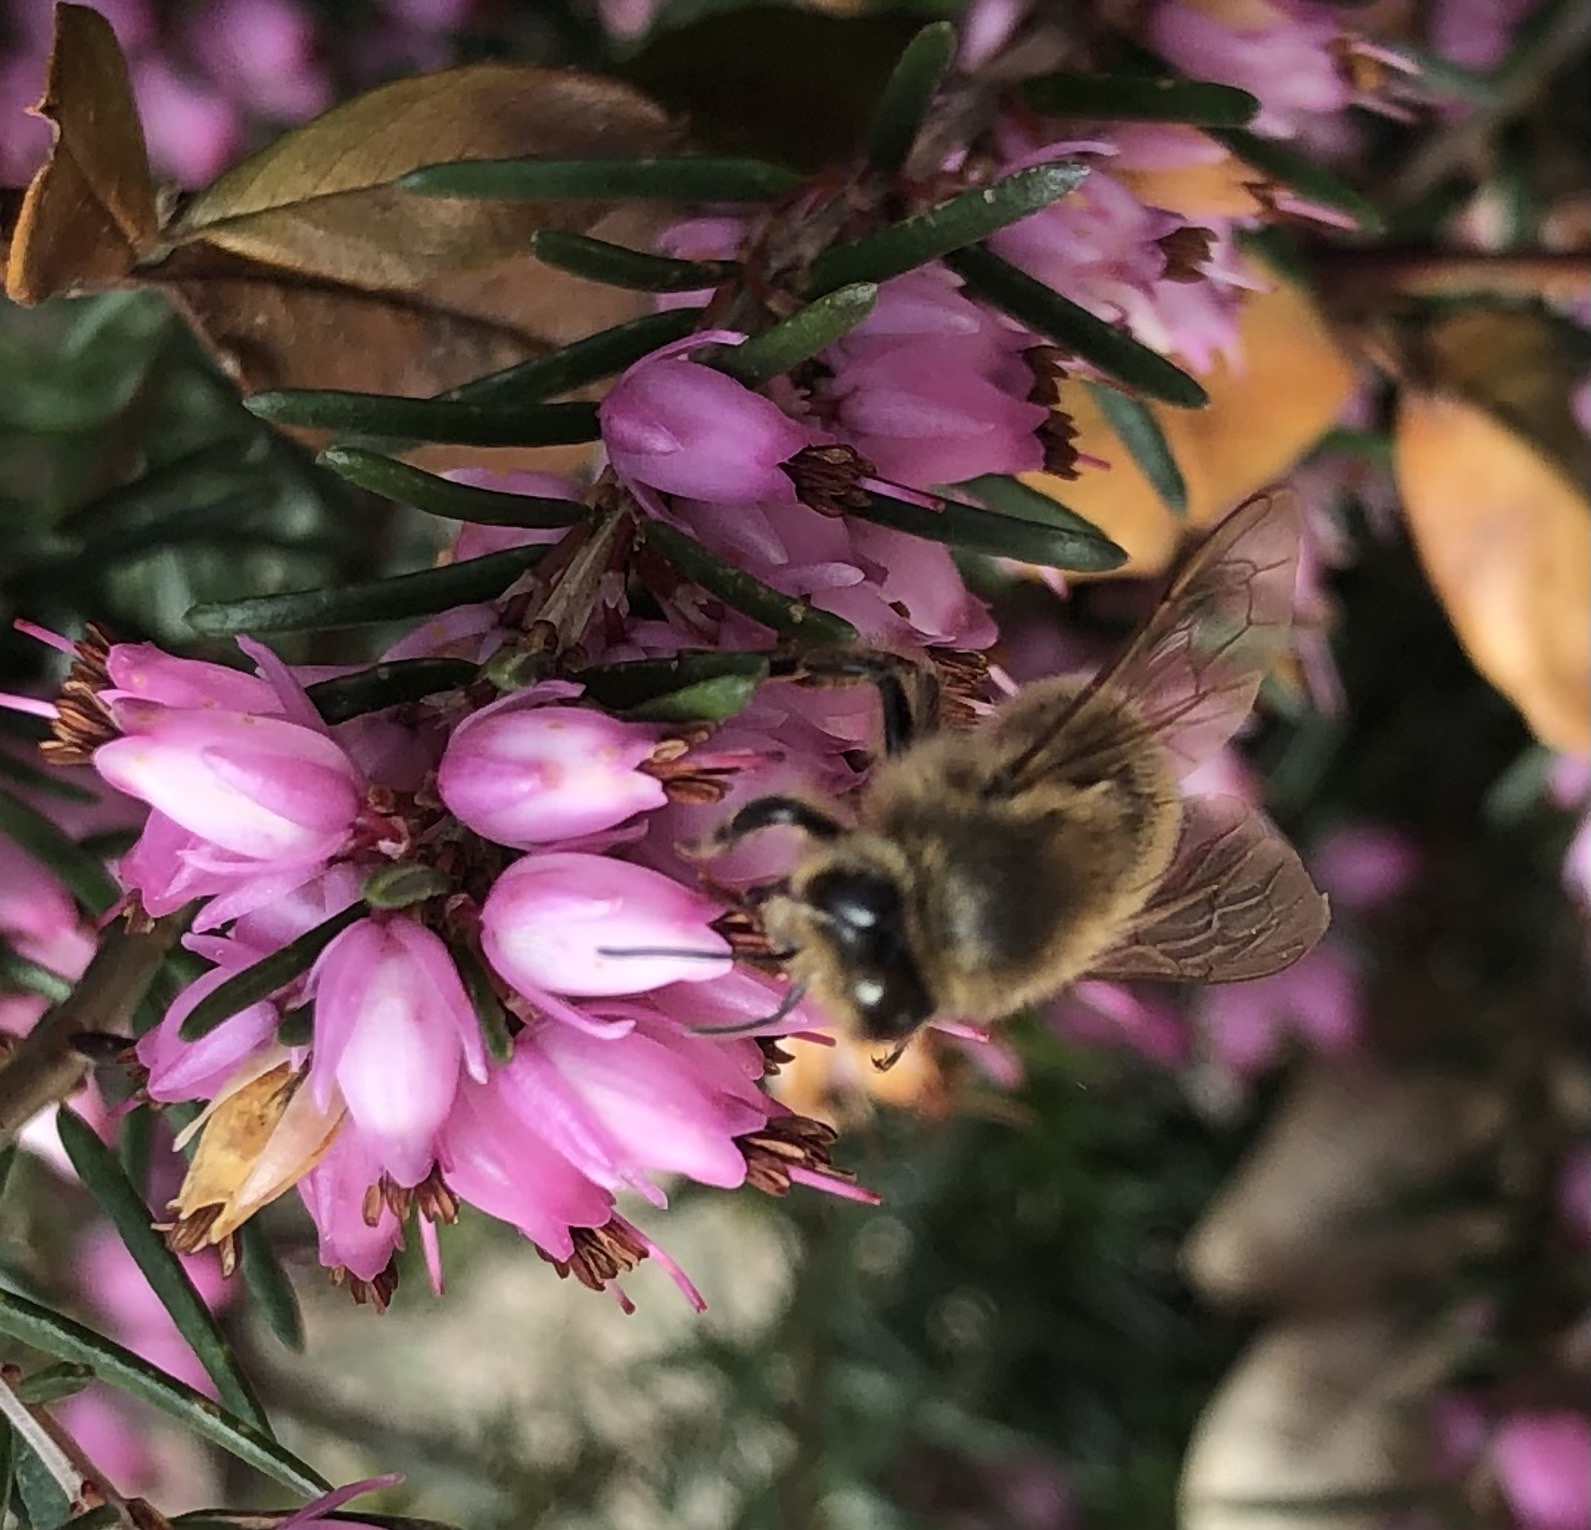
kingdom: Animalia
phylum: Arthropoda
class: Insecta
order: Hymenoptera
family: Apidae
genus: Apis
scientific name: Apis mellifera
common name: Honey bee
